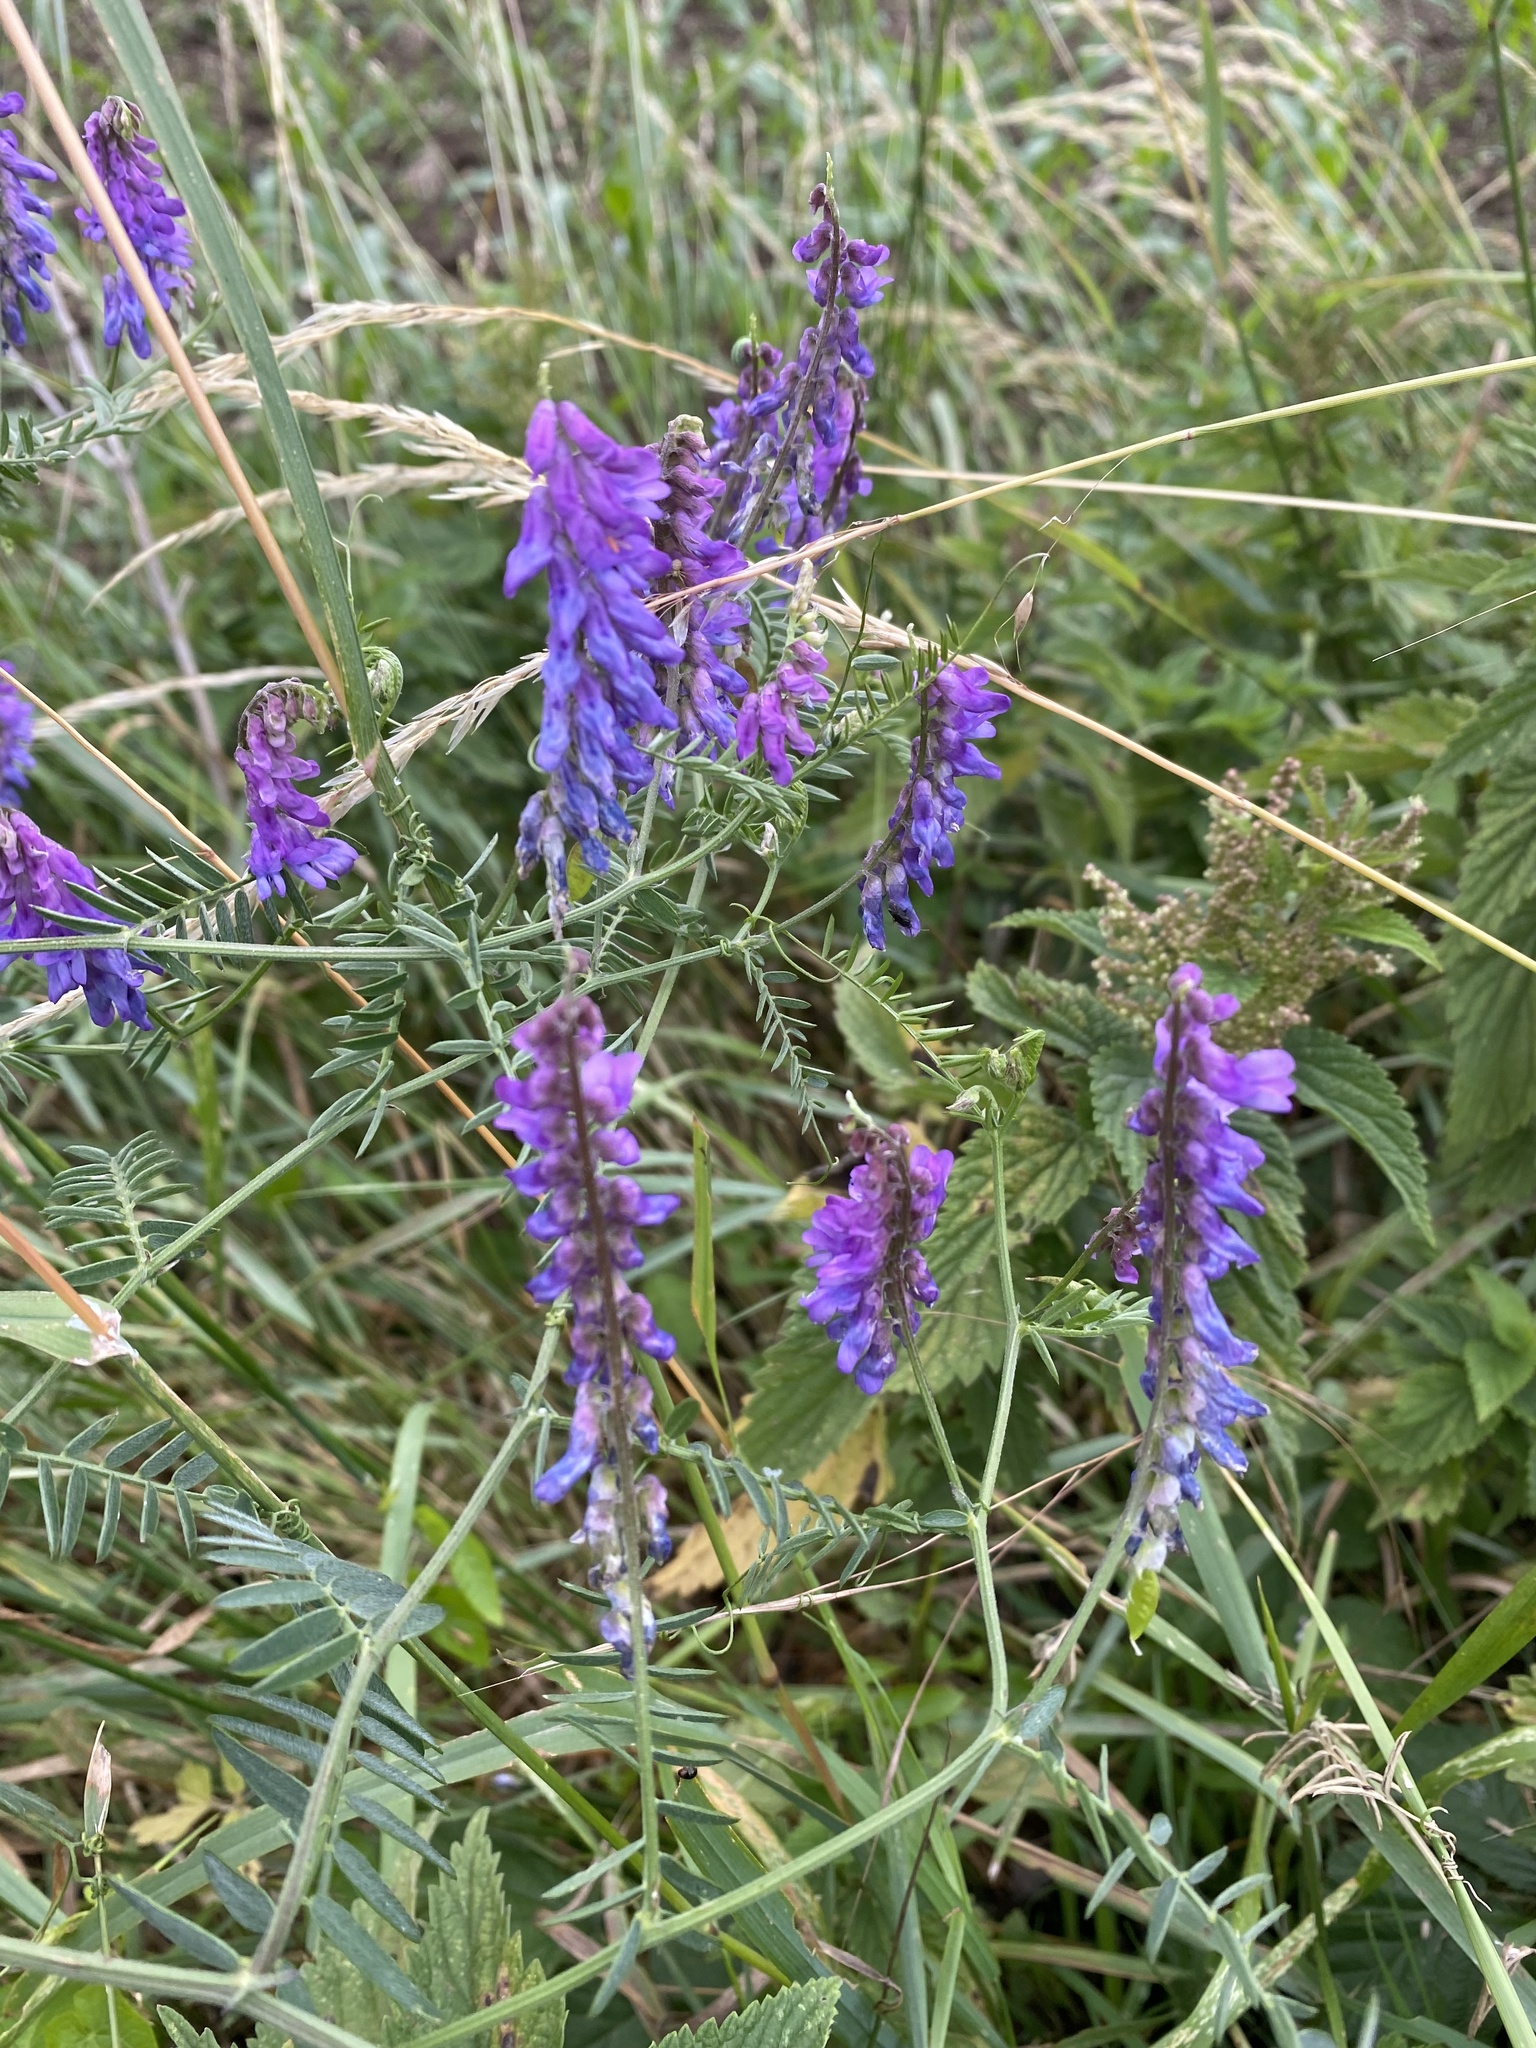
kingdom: Plantae
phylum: Tracheophyta
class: Magnoliopsida
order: Fabales
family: Fabaceae
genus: Vicia
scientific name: Vicia cracca
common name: Bird vetch
